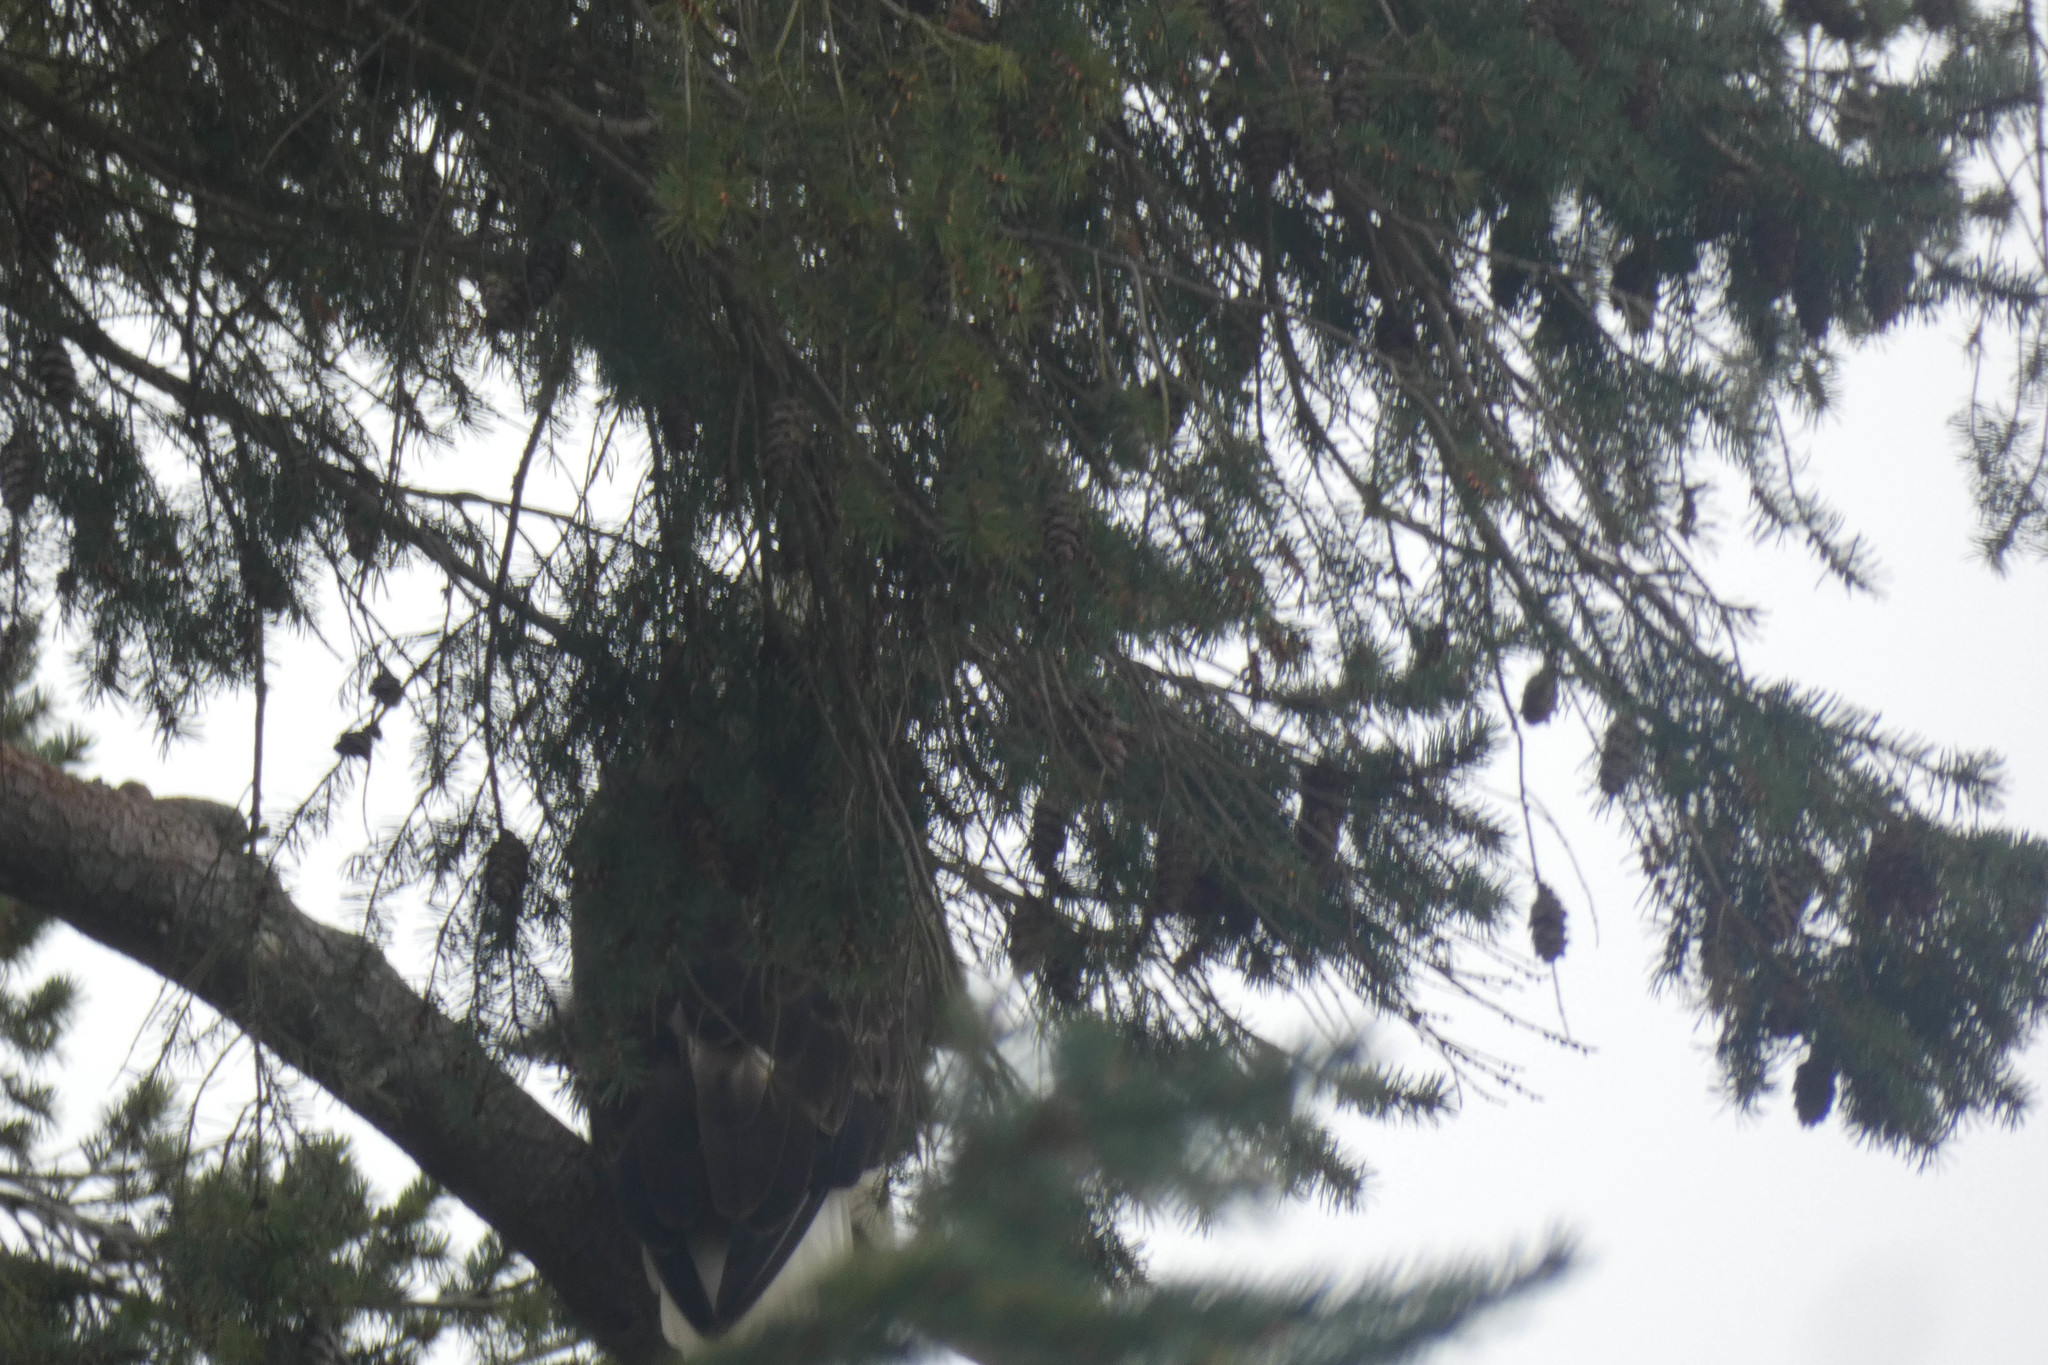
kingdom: Animalia
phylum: Chordata
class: Aves
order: Accipitriformes
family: Accipitridae
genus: Haliaeetus
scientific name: Haliaeetus leucocephalus
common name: Bald eagle
